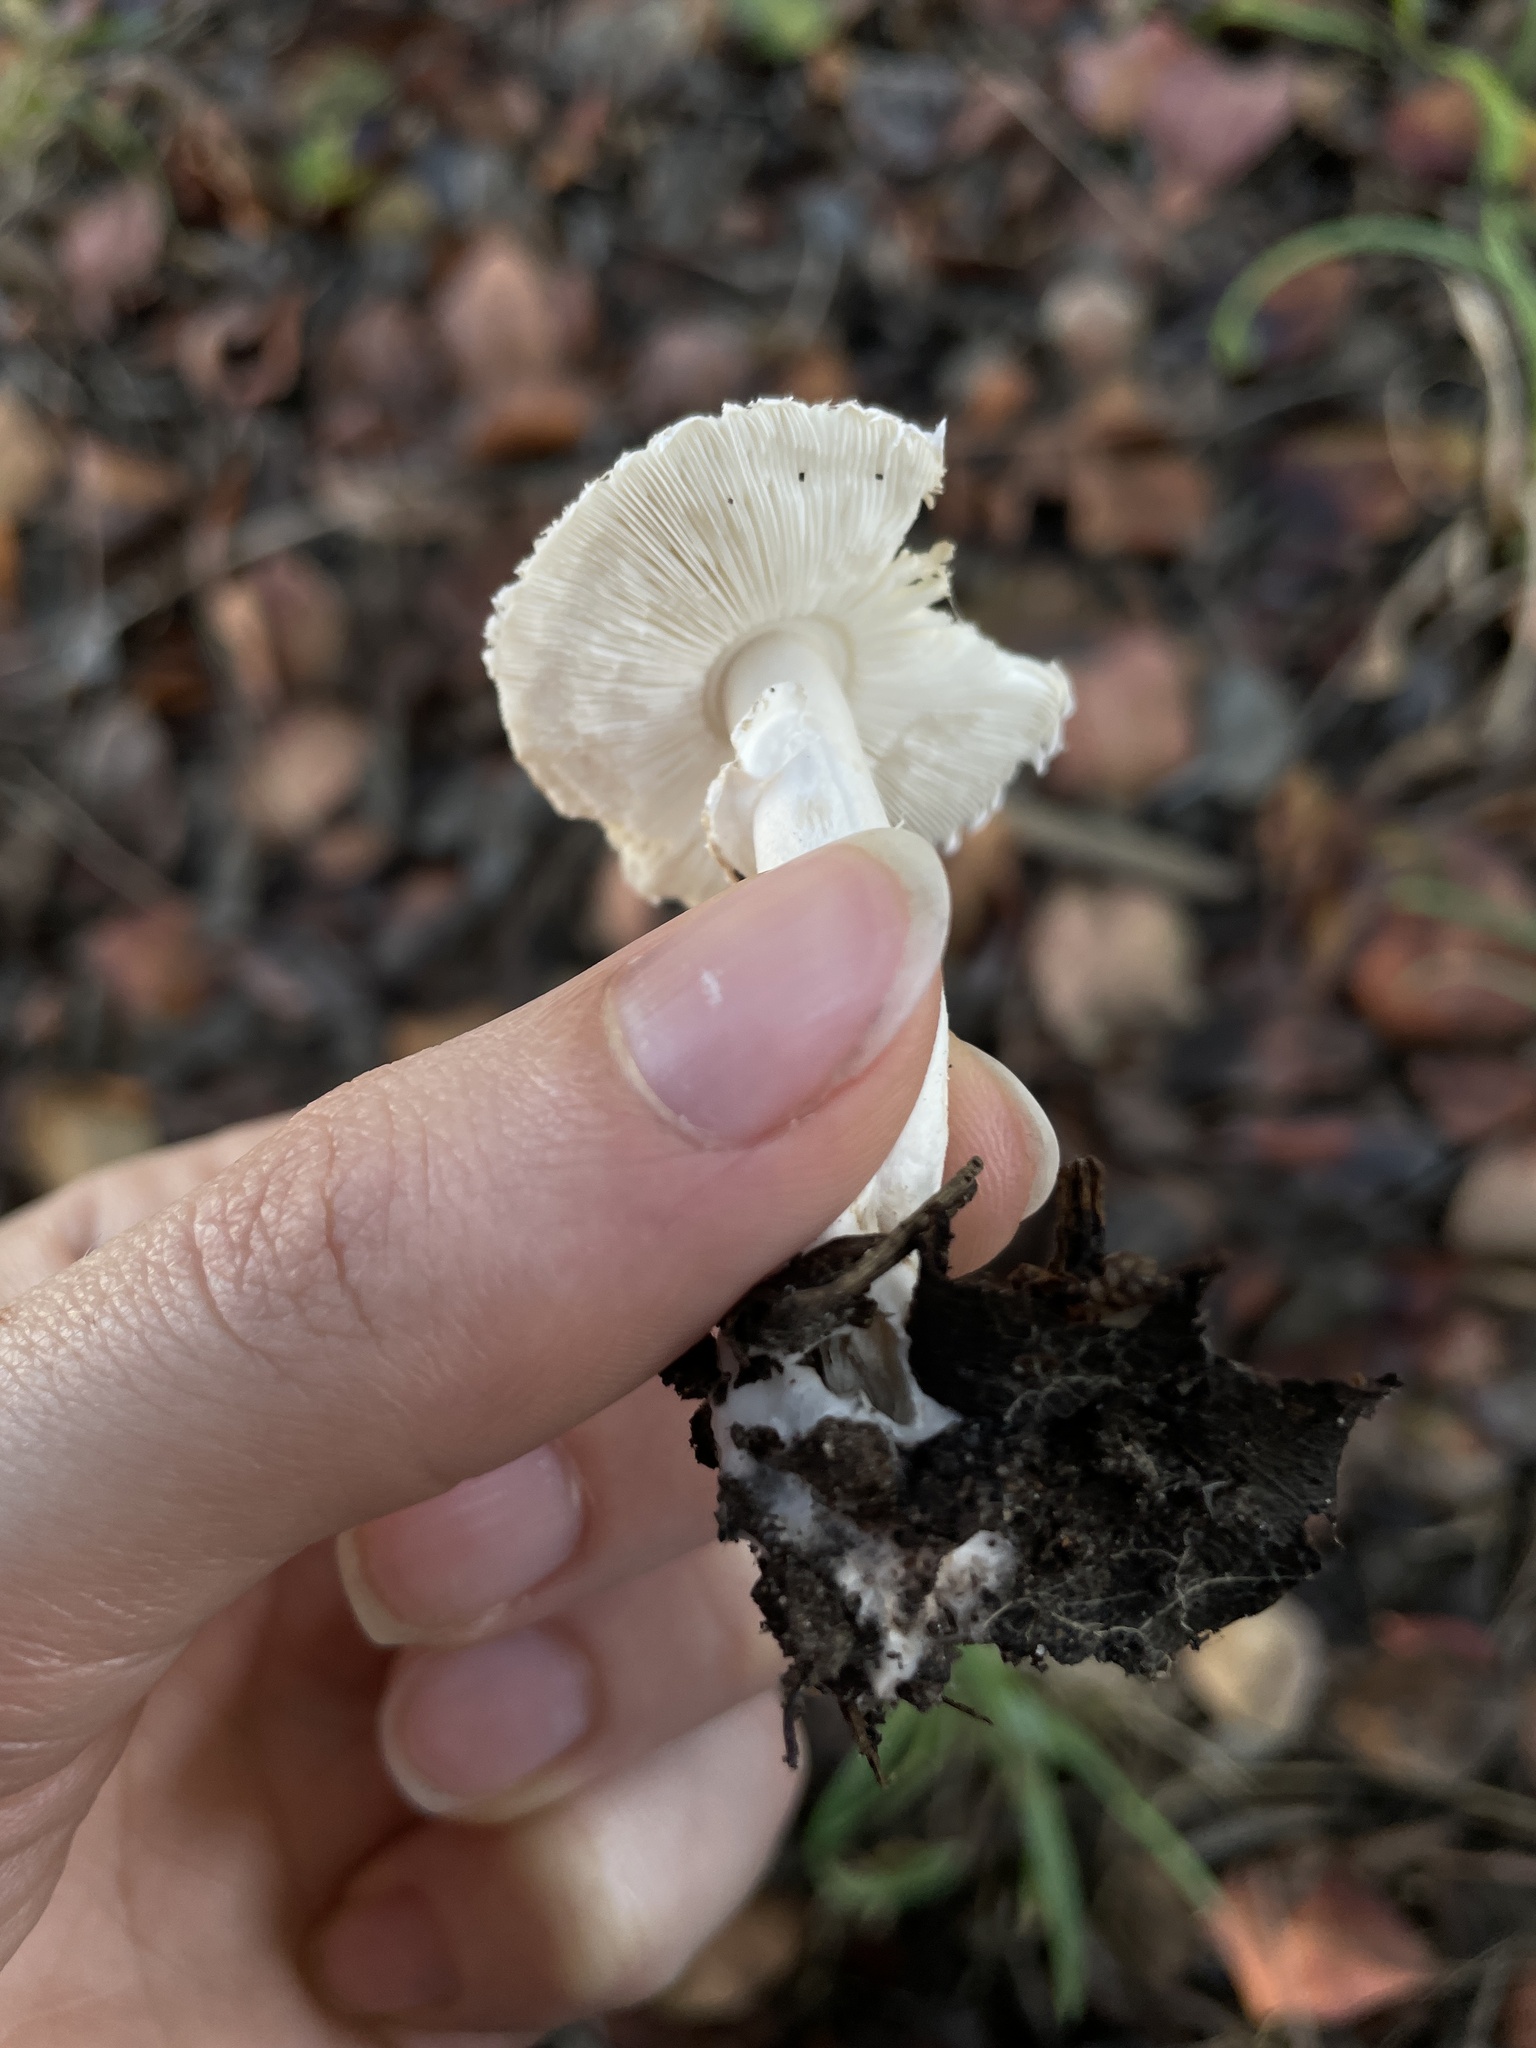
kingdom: Fungi
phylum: Basidiomycota
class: Agaricomycetes
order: Agaricales
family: Agaricaceae
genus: Leucoagaricus
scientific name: Leucoagaricus barssii
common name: Smoky dapperling
